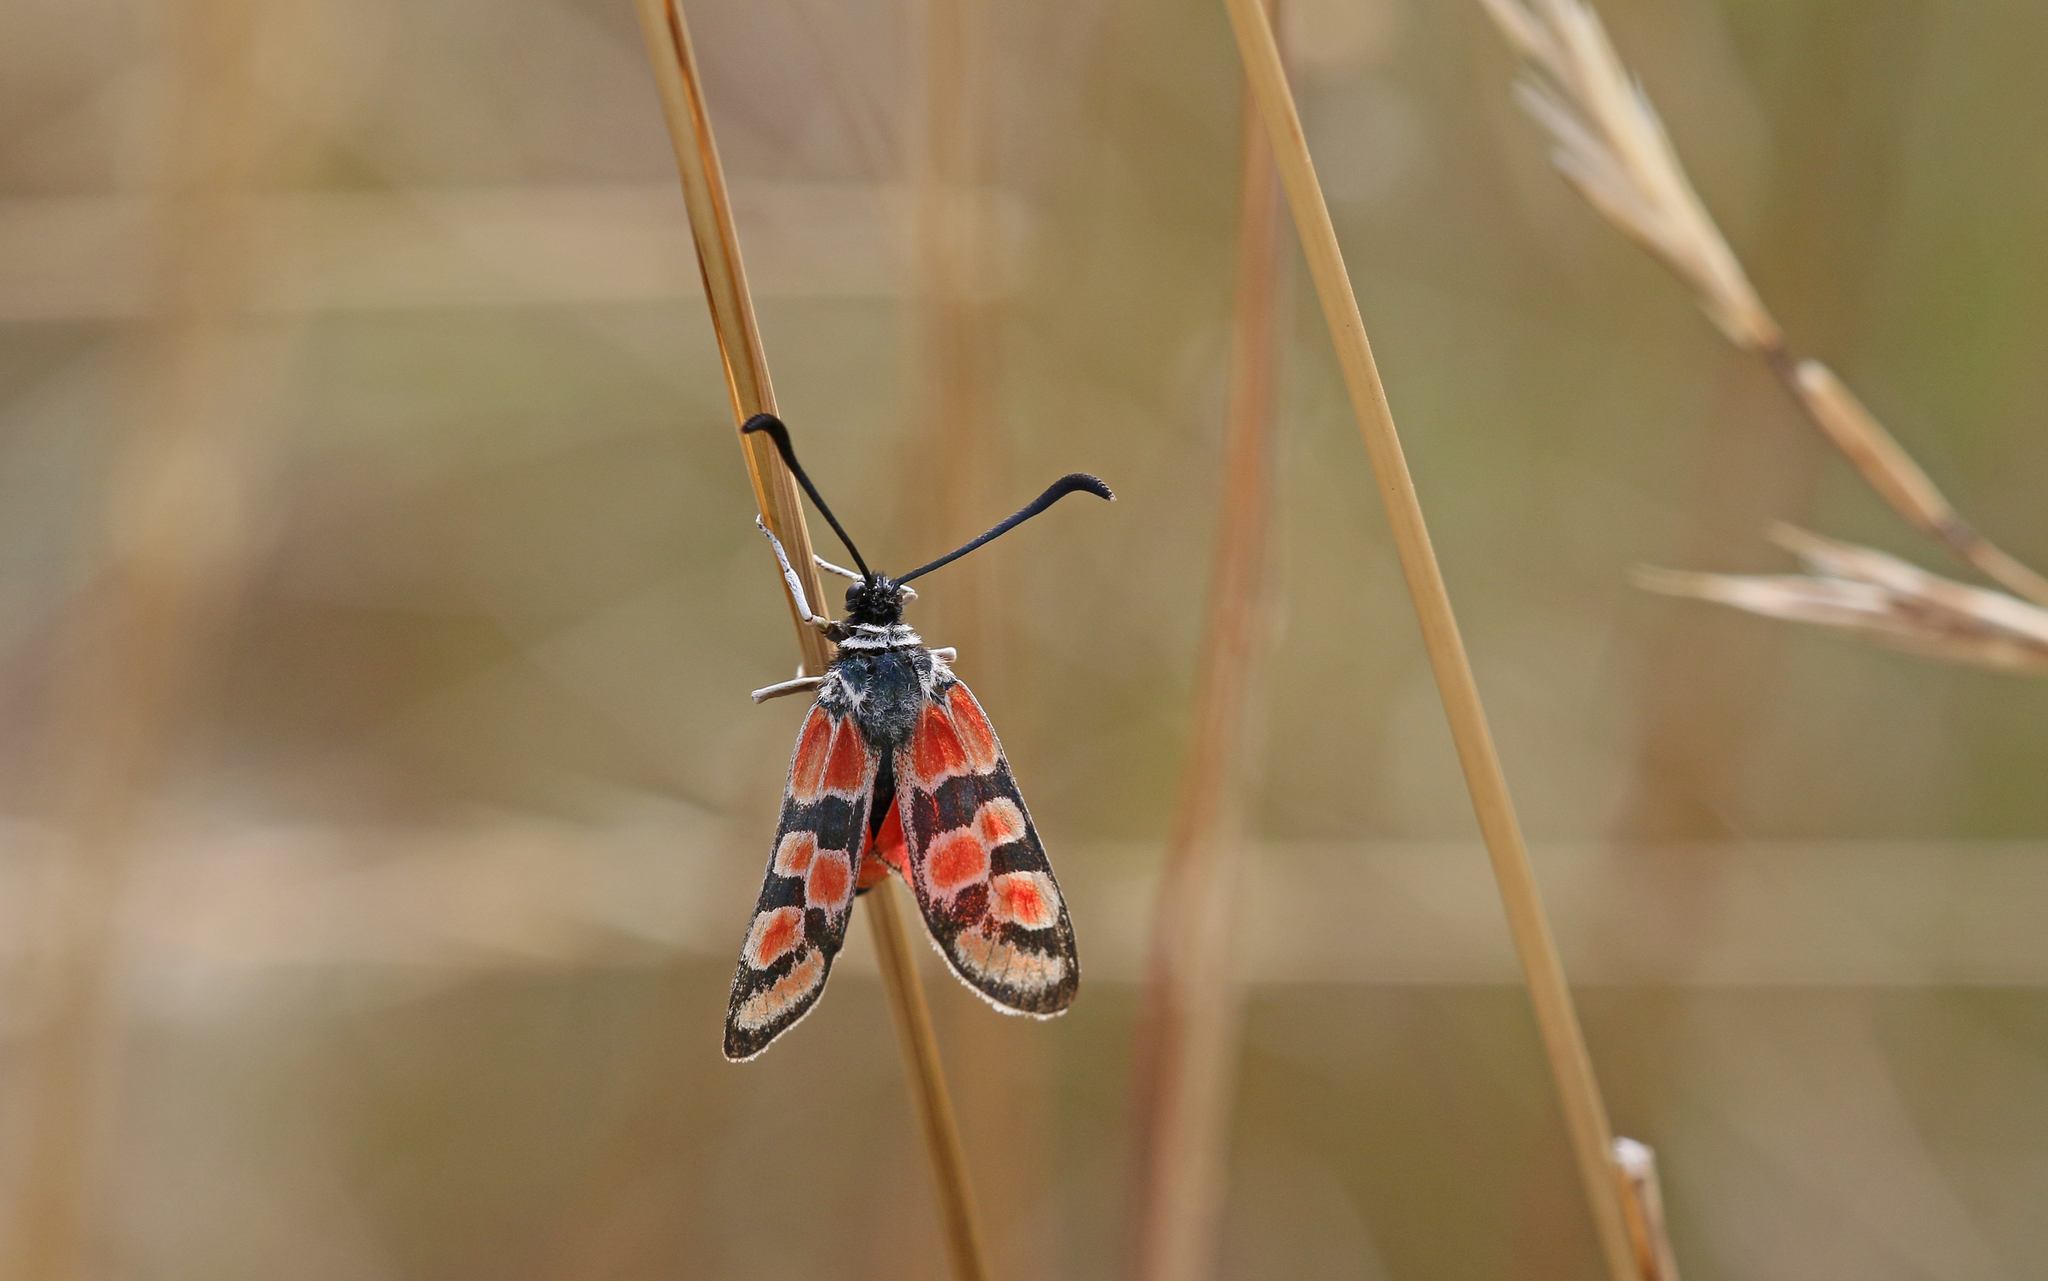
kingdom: Animalia
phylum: Arthropoda
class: Insecta
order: Lepidoptera
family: Zygaenidae
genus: Zygaena
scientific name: Zygaena carniolica
